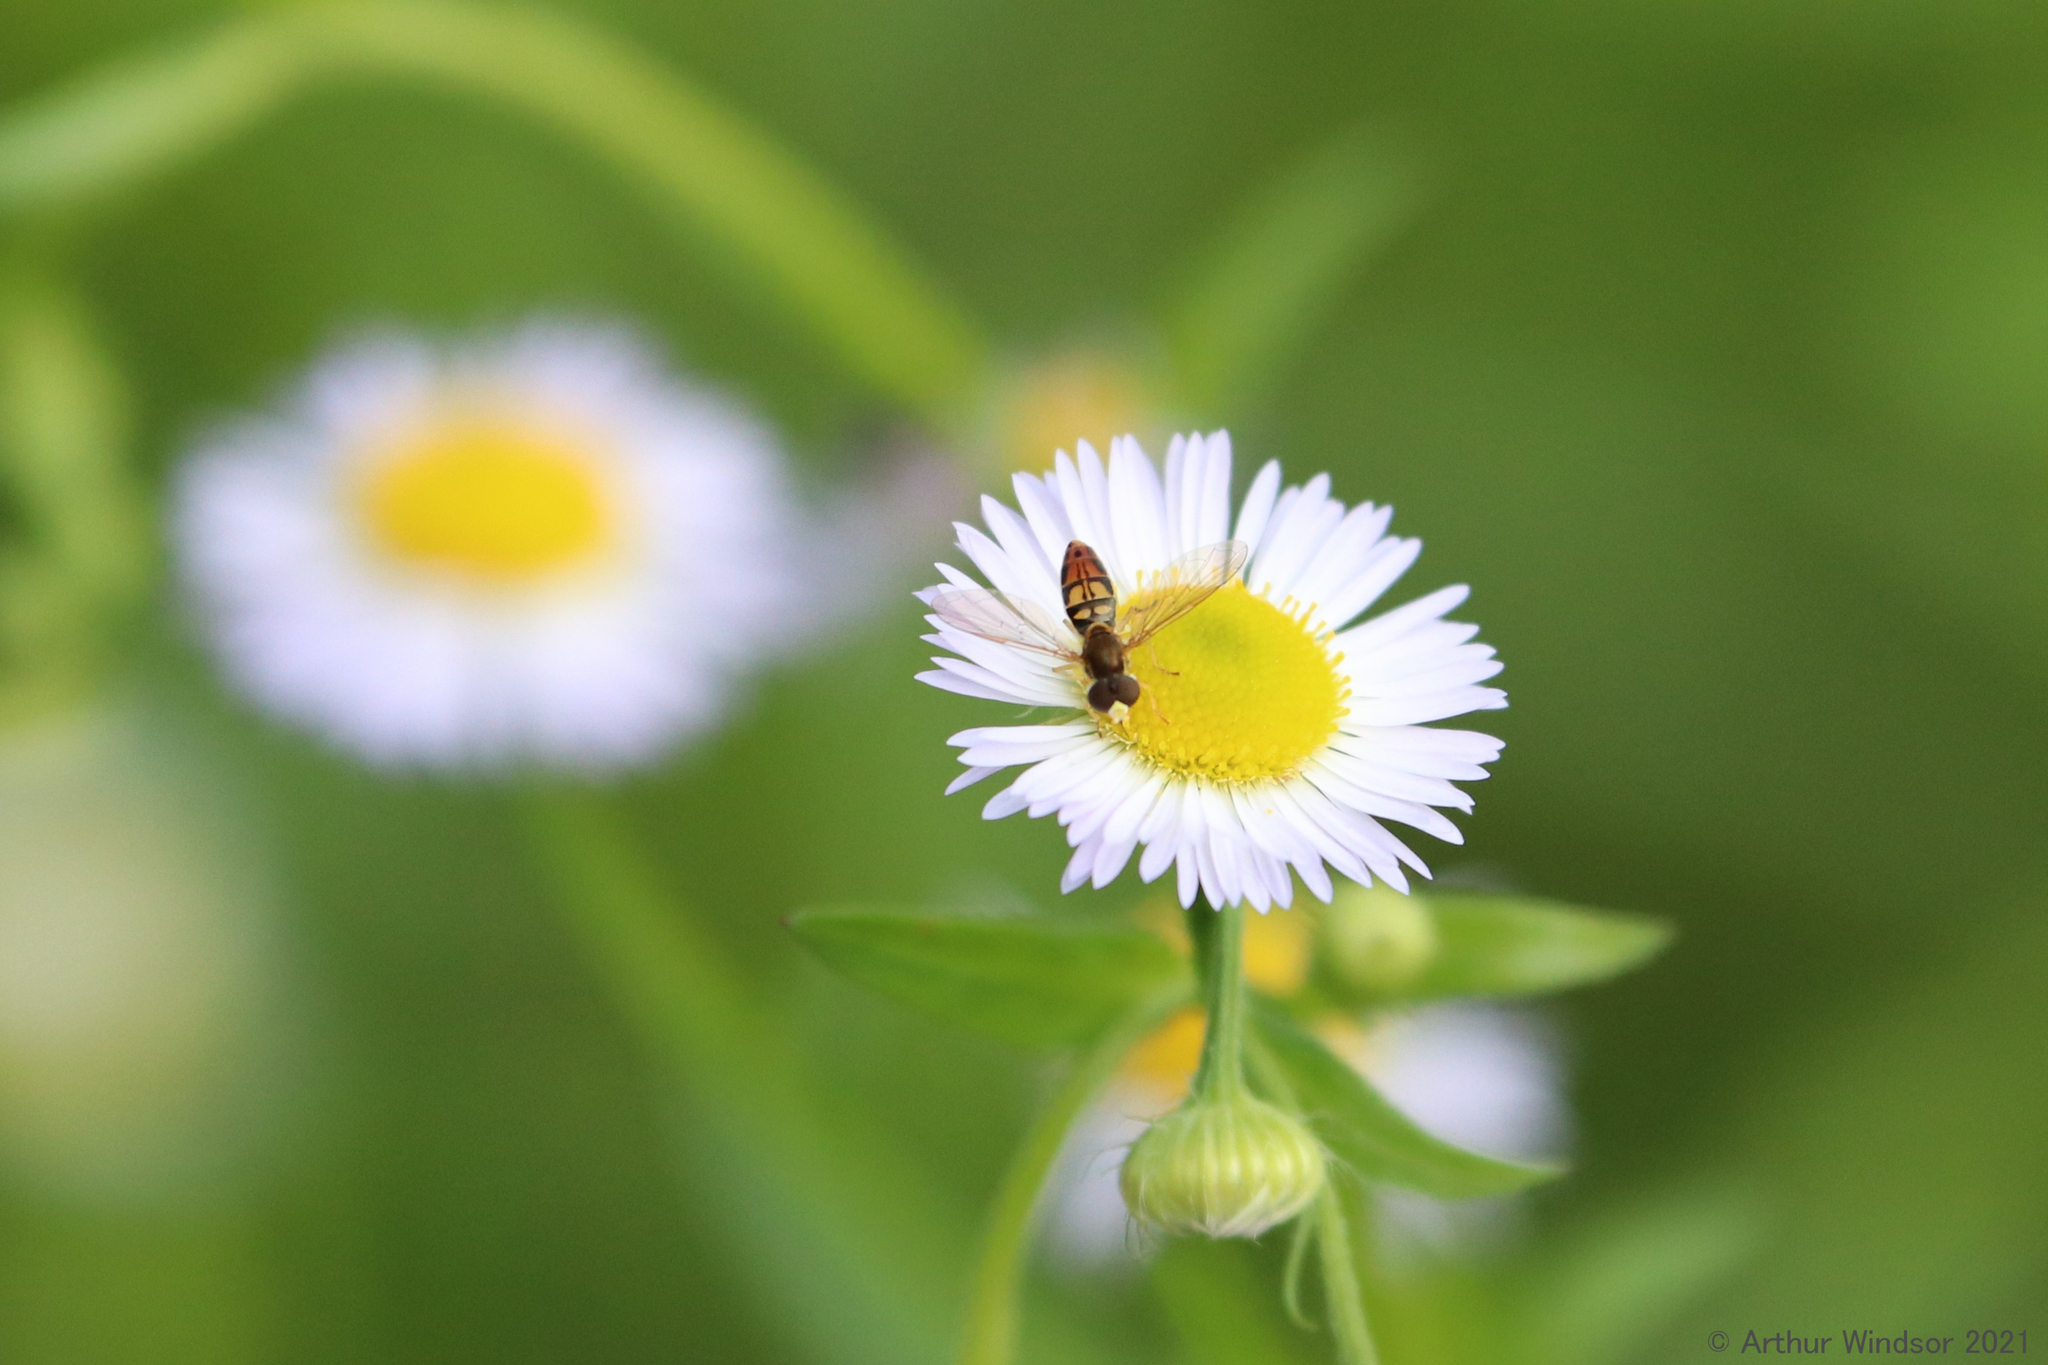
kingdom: Animalia
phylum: Arthropoda
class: Insecta
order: Diptera
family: Syrphidae
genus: Toxomerus
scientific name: Toxomerus marginatus
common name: Syrphid fly
